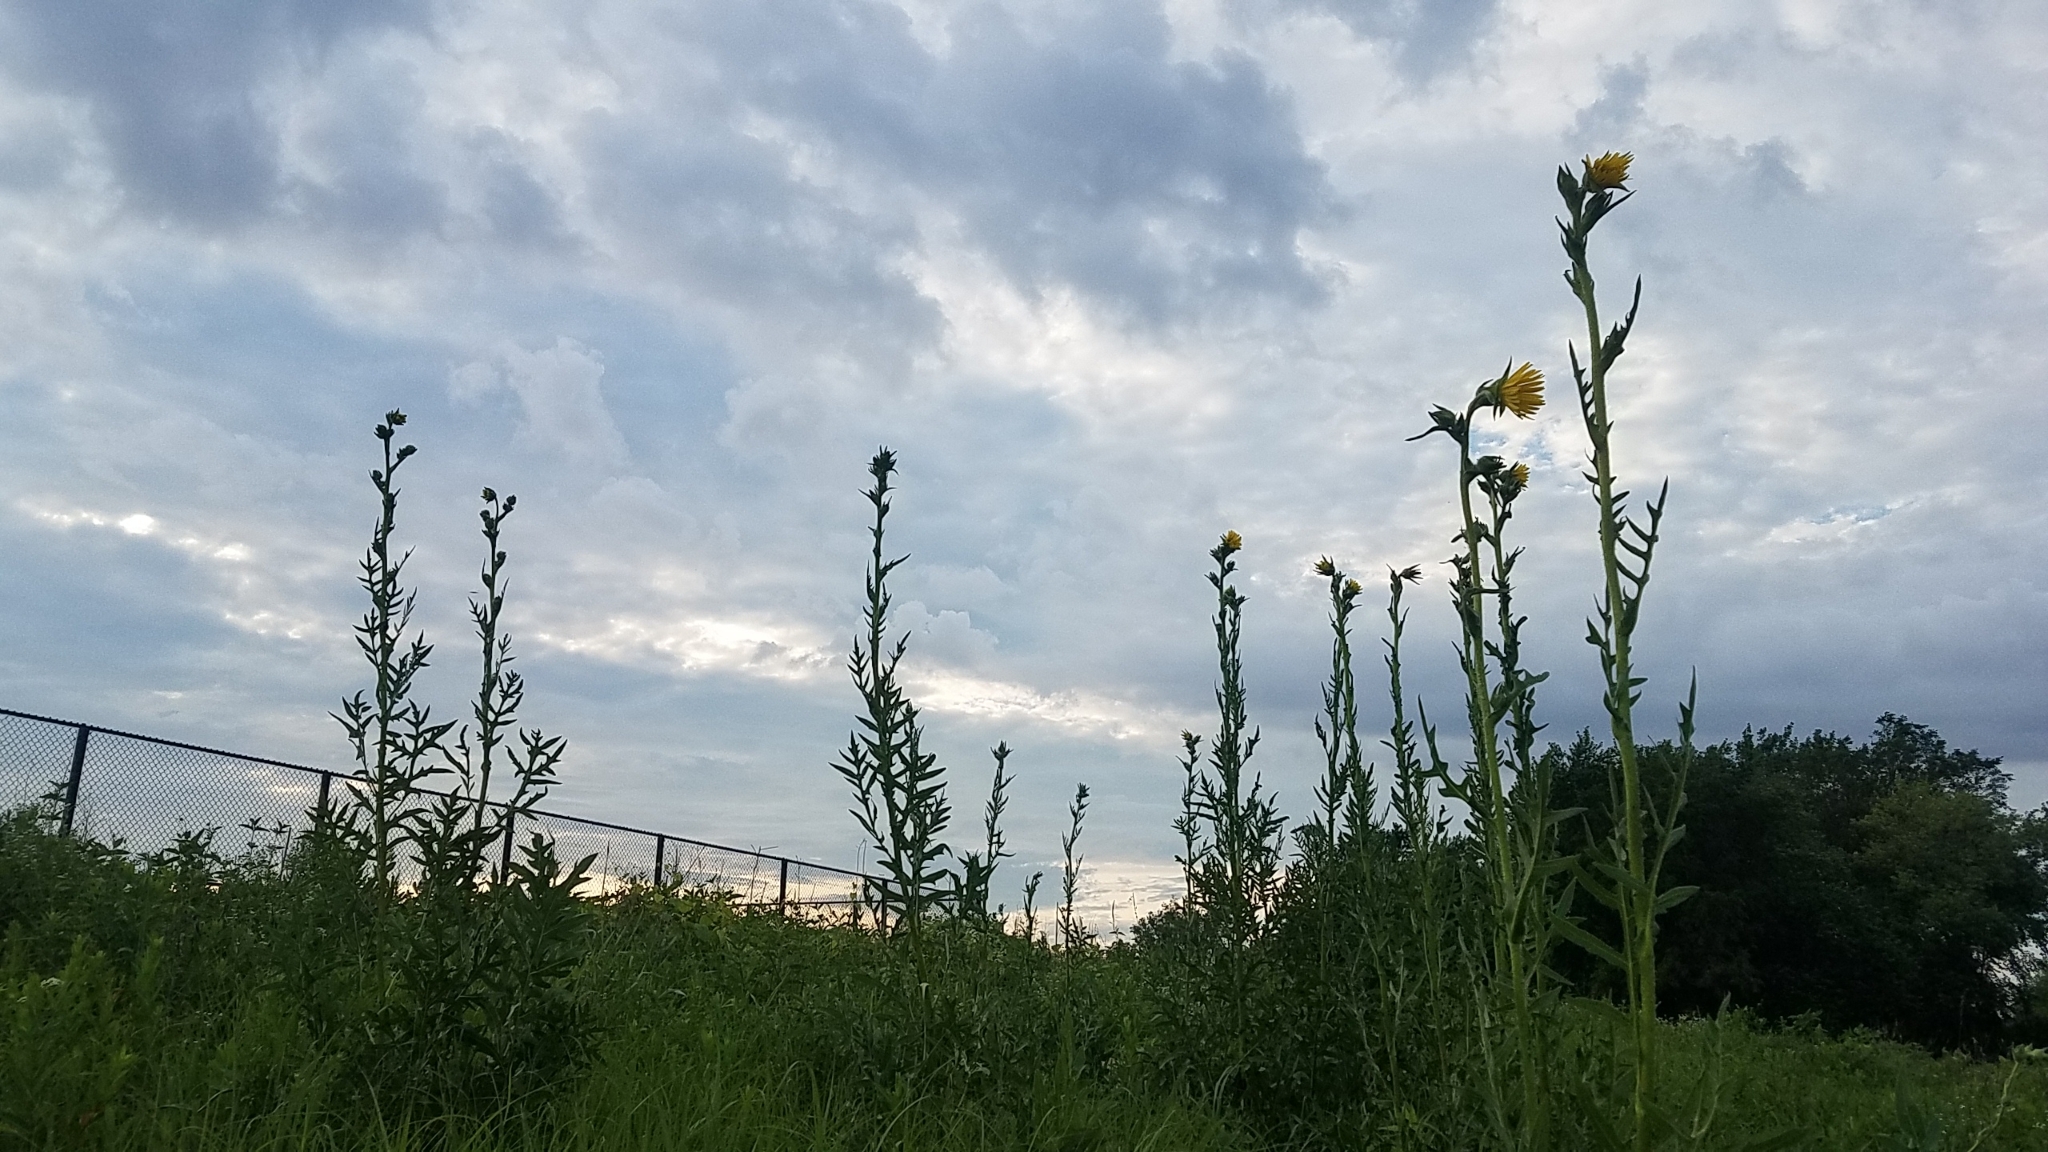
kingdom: Plantae
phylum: Tracheophyta
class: Magnoliopsida
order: Asterales
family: Asteraceae
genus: Silphium
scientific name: Silphium laciniatum
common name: Polarplant
